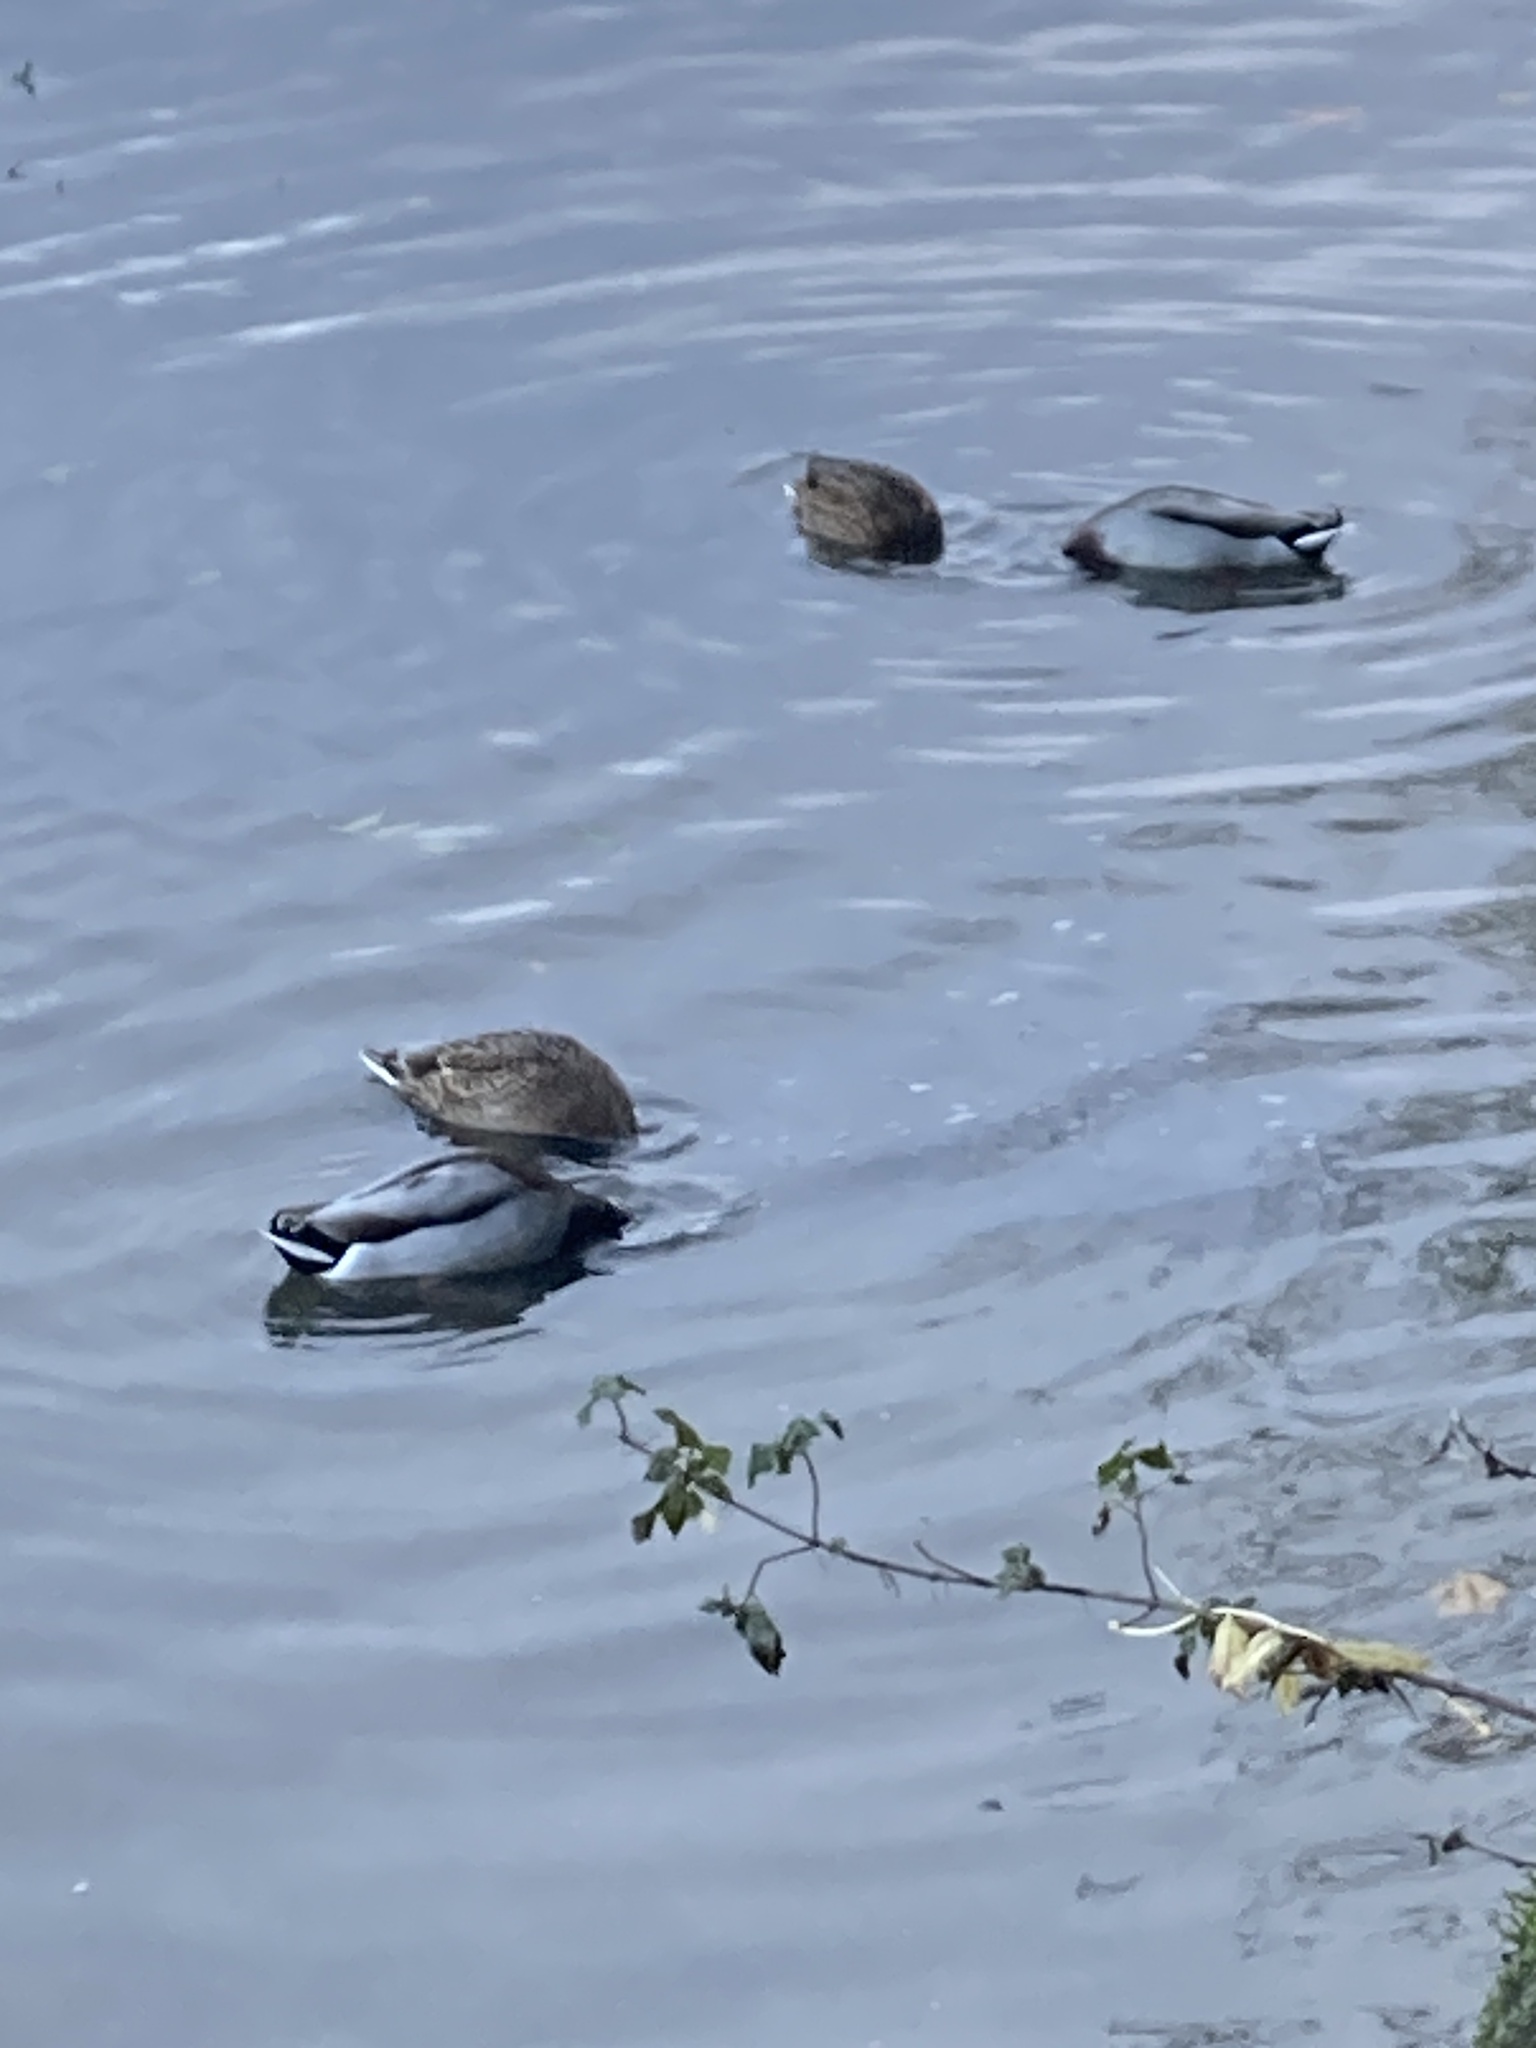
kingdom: Animalia
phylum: Chordata
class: Aves
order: Anseriformes
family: Anatidae
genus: Anas
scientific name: Anas platyrhynchos
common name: Mallard
